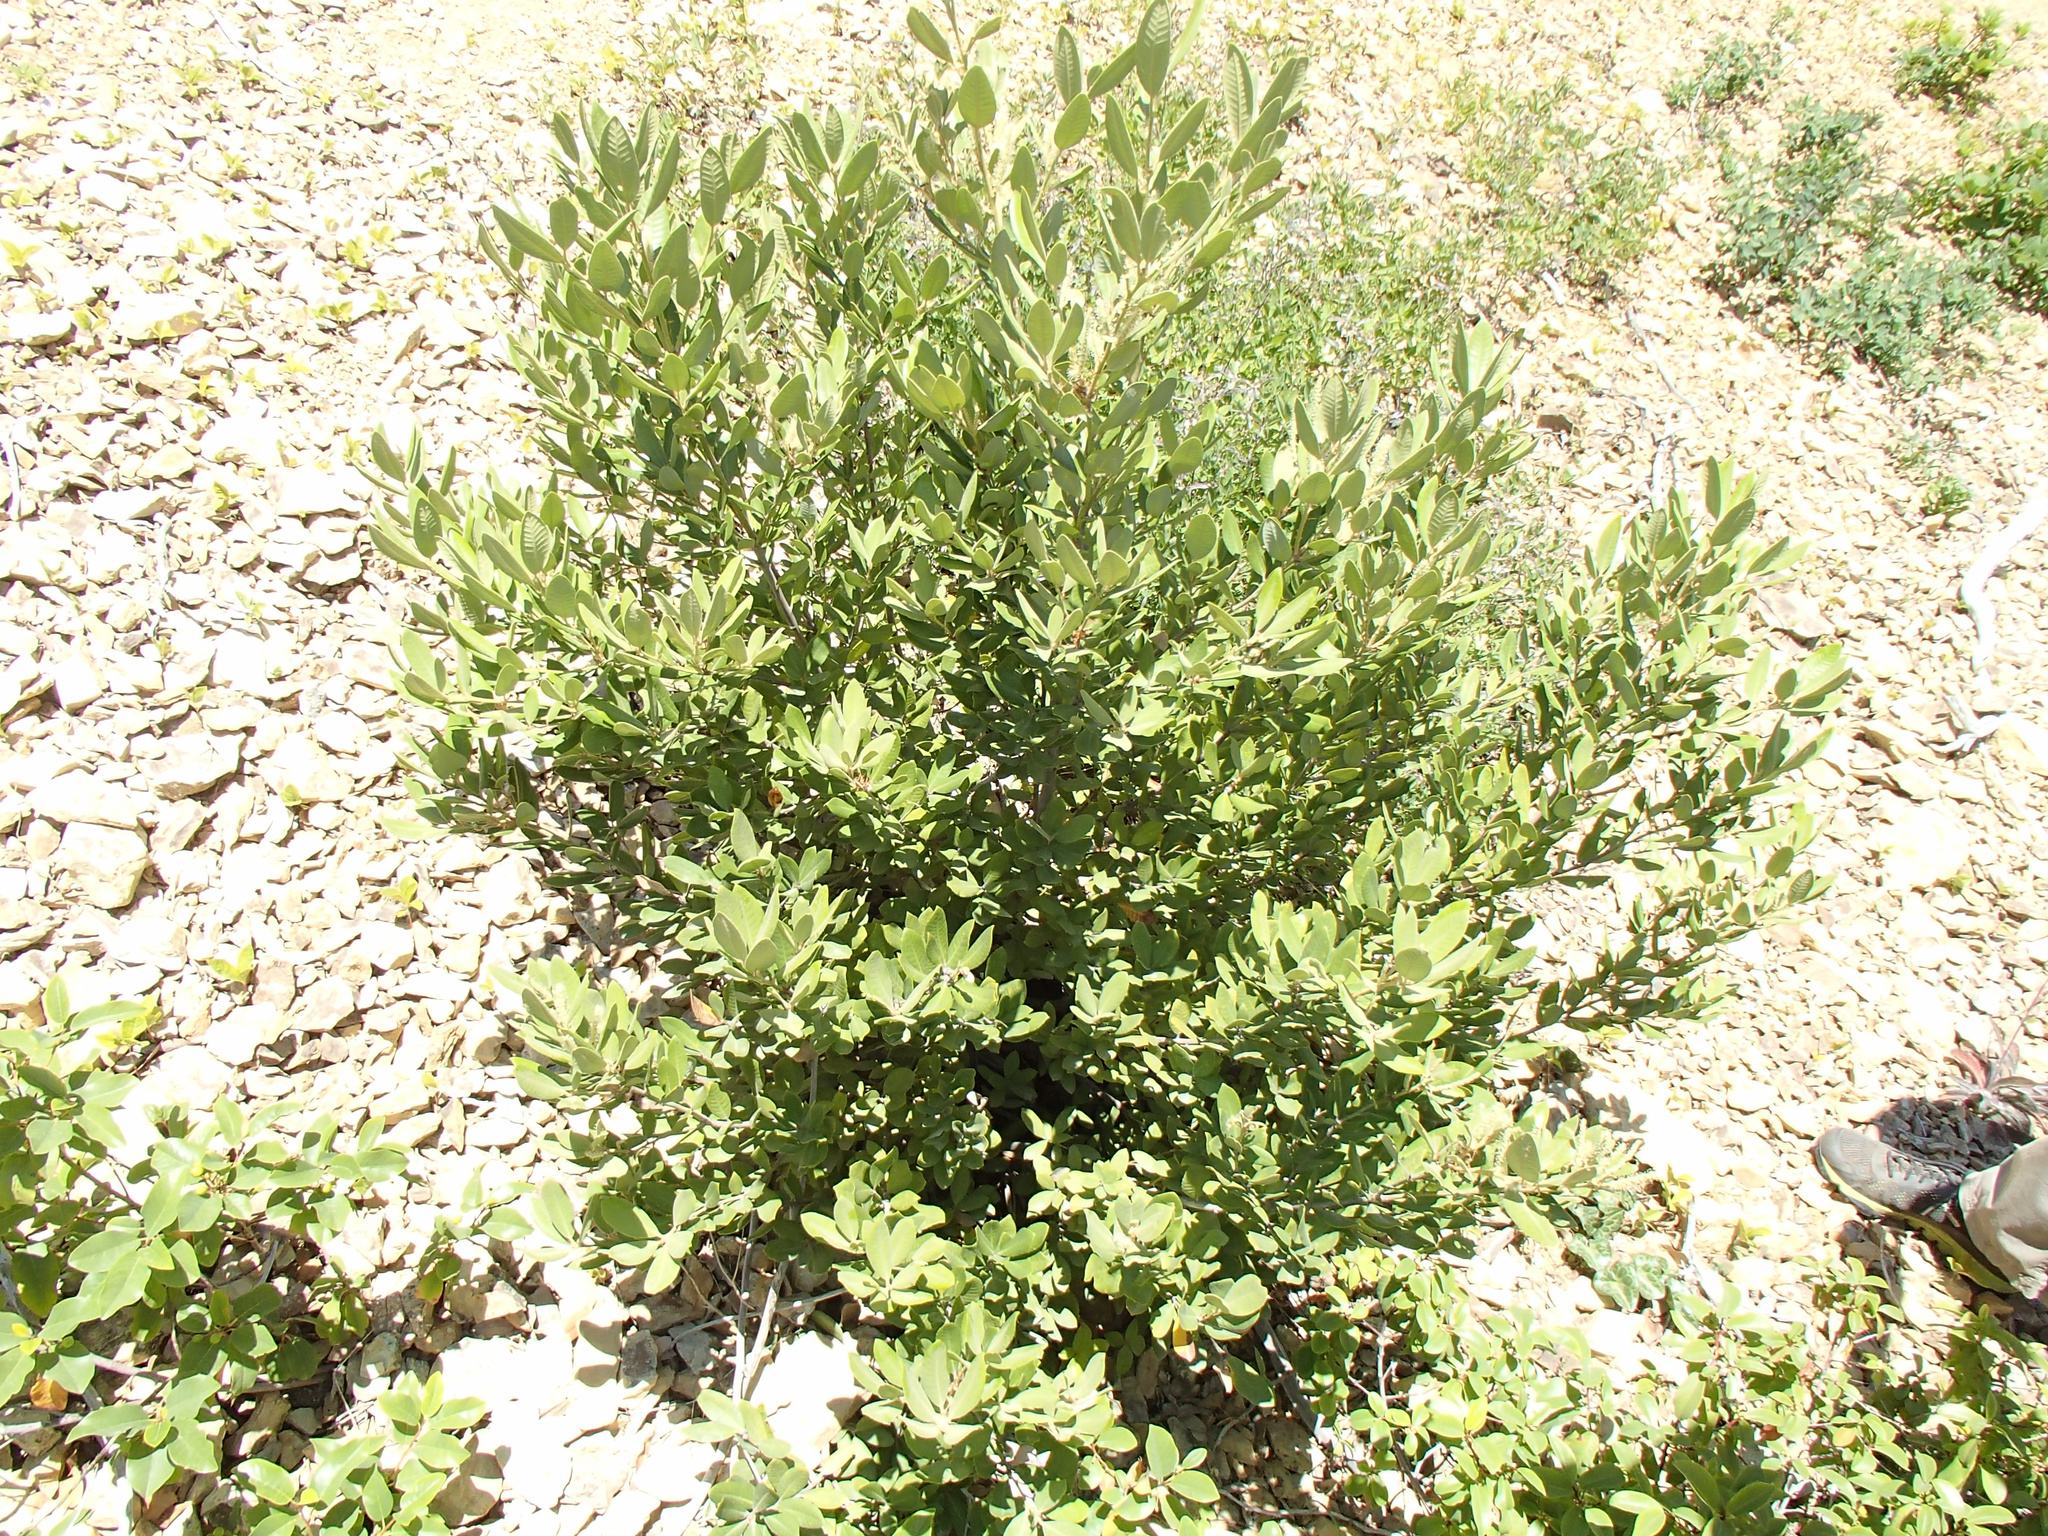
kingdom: Plantae
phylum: Tracheophyta
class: Magnoliopsida
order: Fagales
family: Fagaceae
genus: Notholithocarpus
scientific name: Notholithocarpus densiflorus
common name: Tan bark oak
